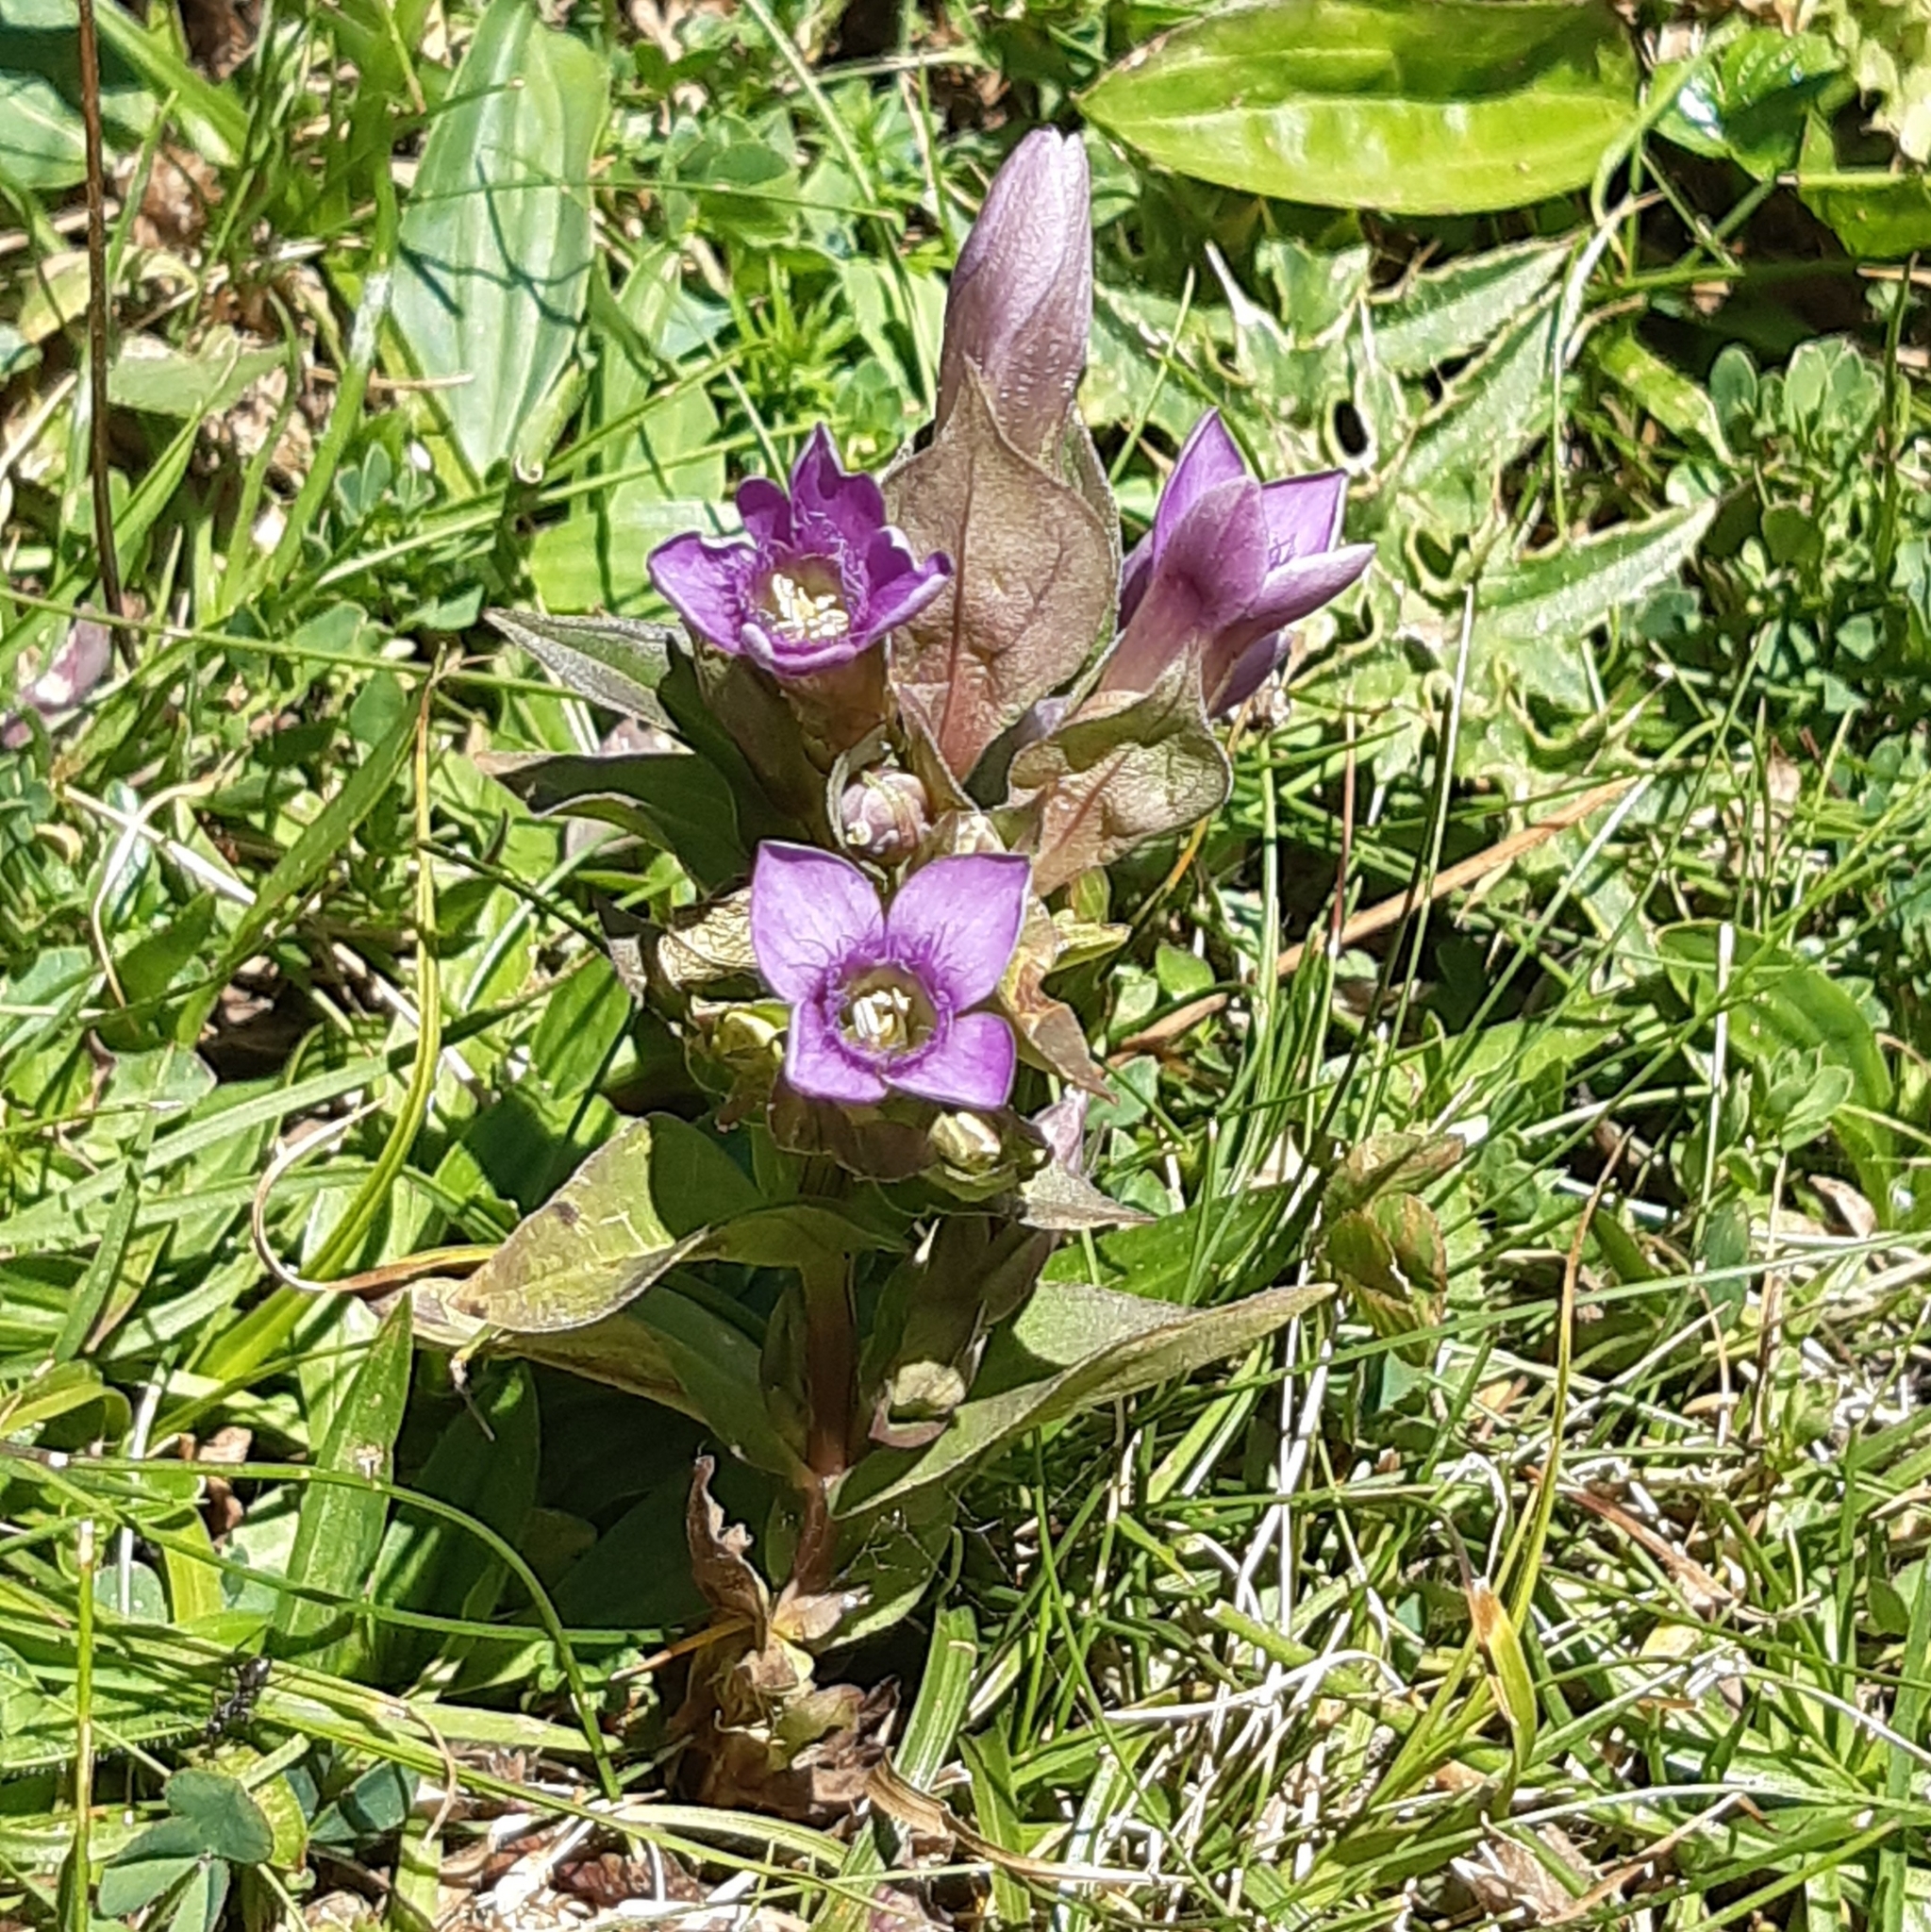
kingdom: Plantae
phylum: Tracheophyta
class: Magnoliopsida
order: Gentianales
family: Gentianaceae
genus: Gentianella
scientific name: Gentianella campestris
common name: Field gentian
